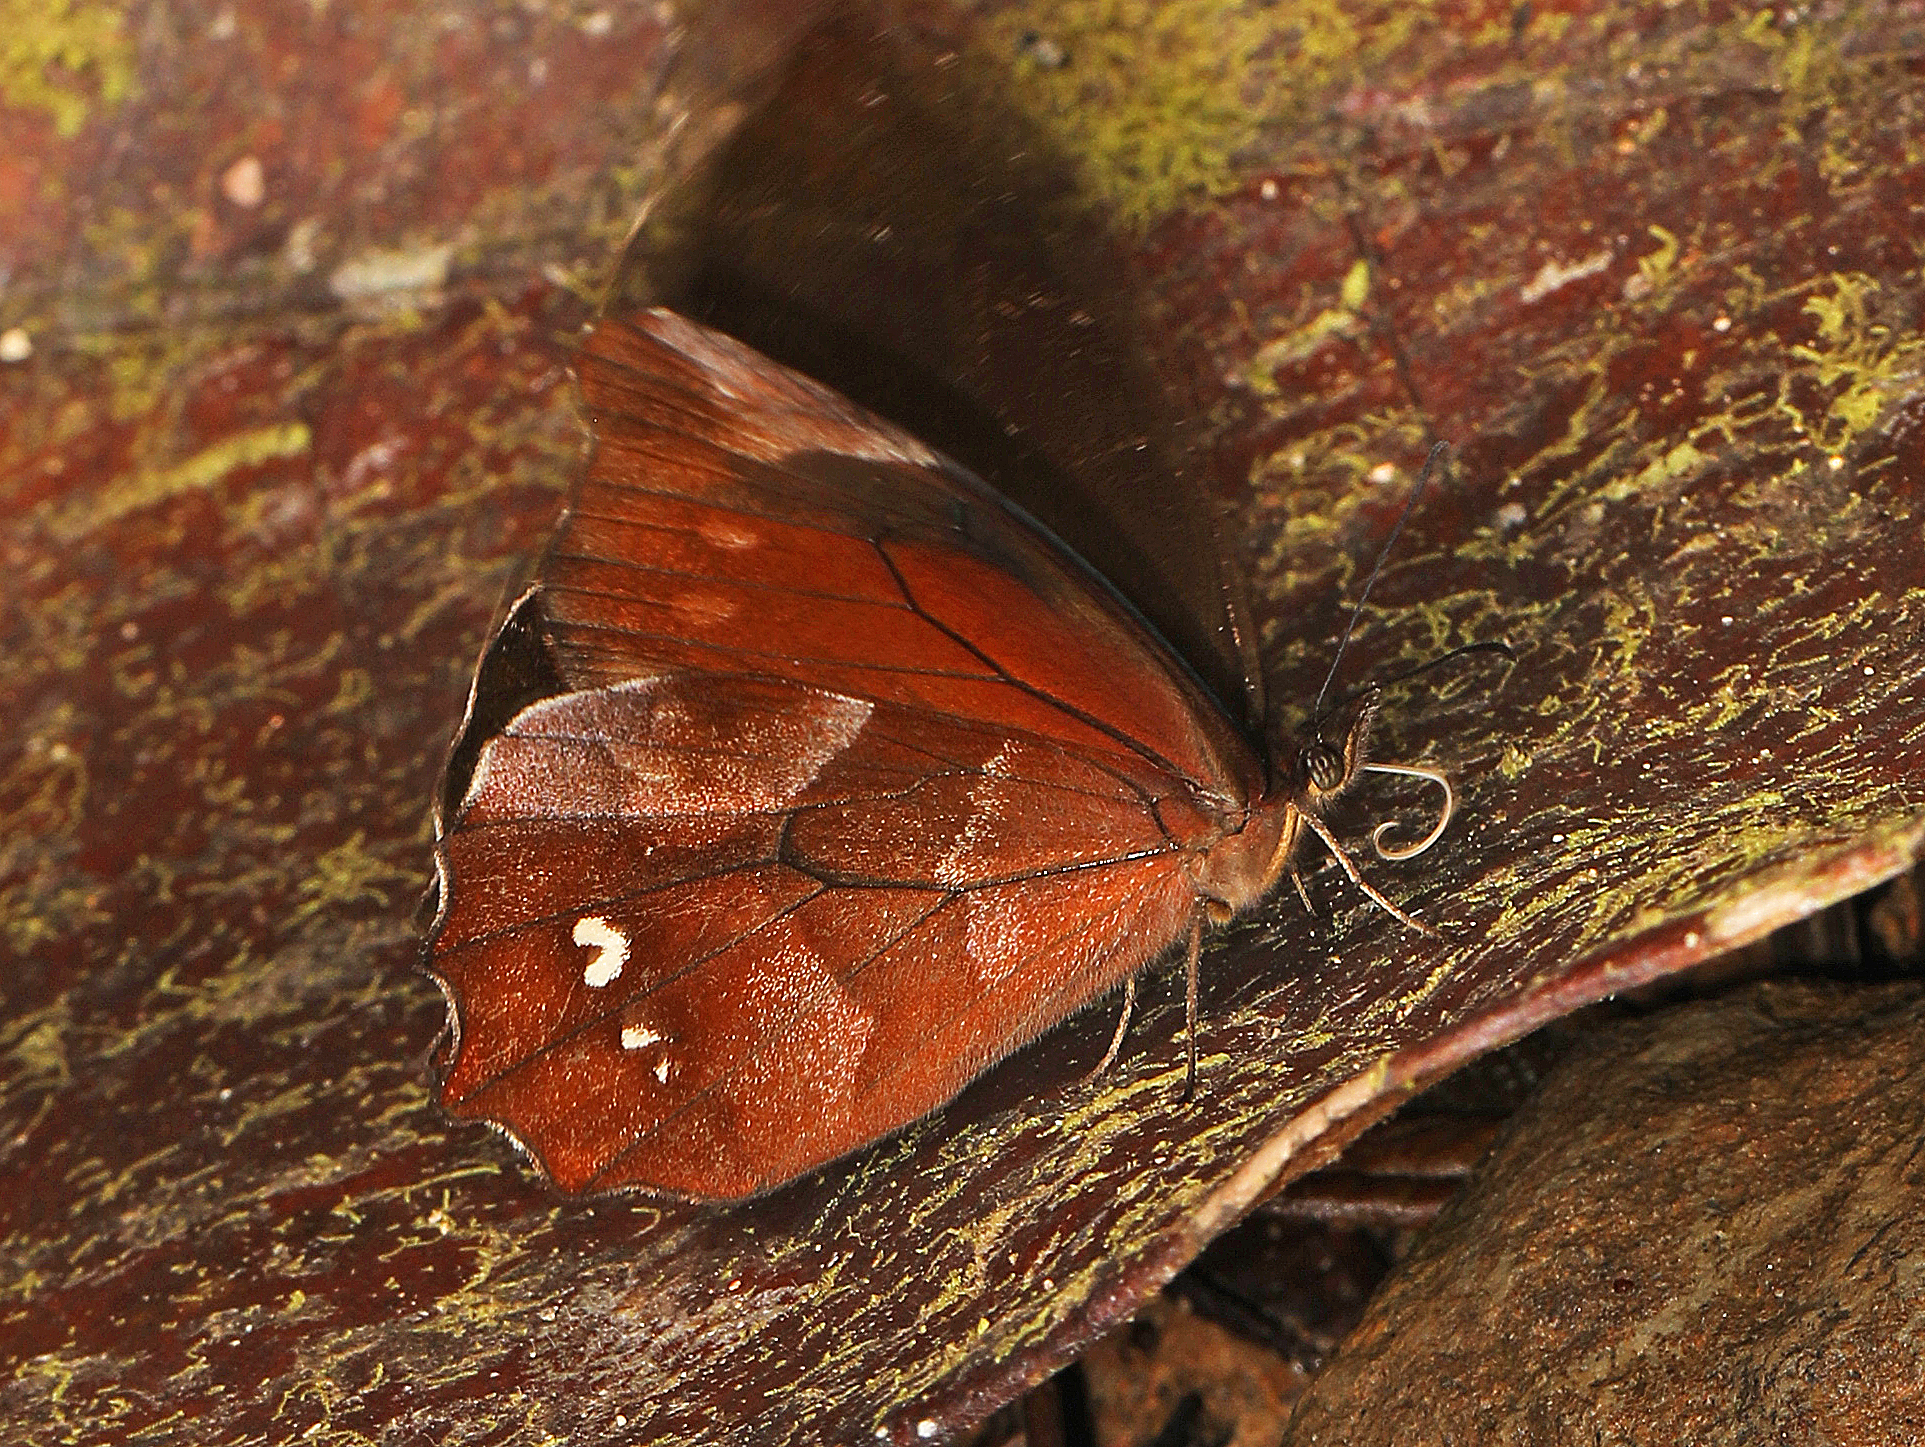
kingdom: Animalia
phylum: Arthropoda
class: Insecta
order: Lepidoptera
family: Nymphalidae
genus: Mygona
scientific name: Mygona irmina
